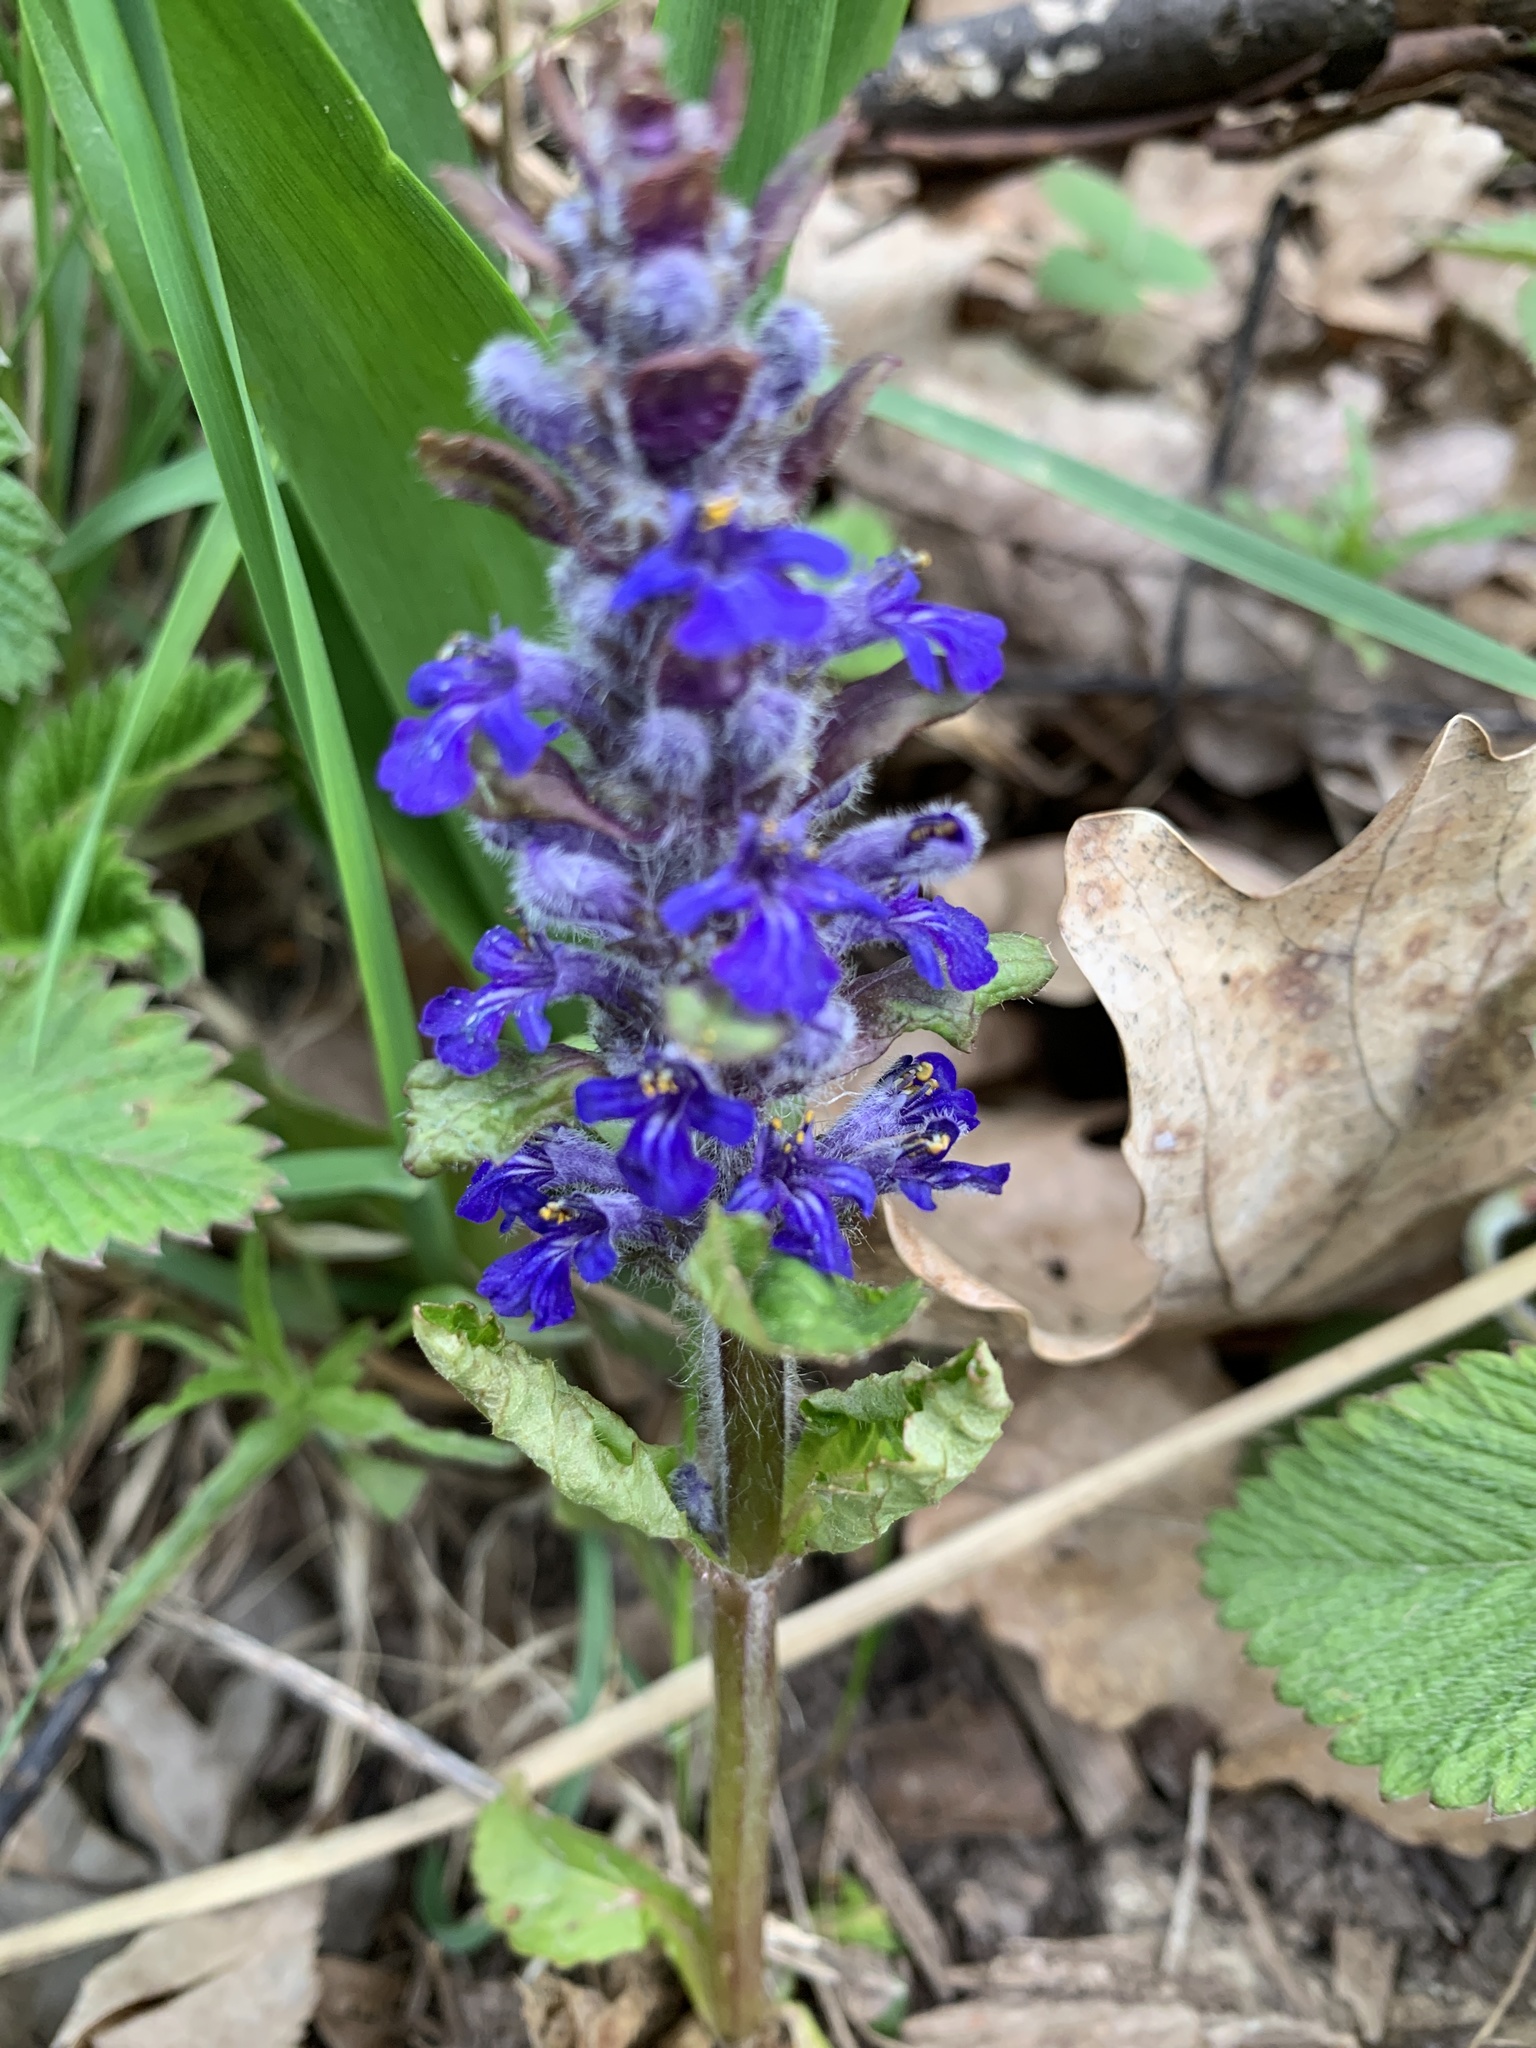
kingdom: Plantae
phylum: Tracheophyta
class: Magnoliopsida
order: Lamiales
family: Lamiaceae
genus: Ajuga
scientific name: Ajuga reptans
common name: Bugle
